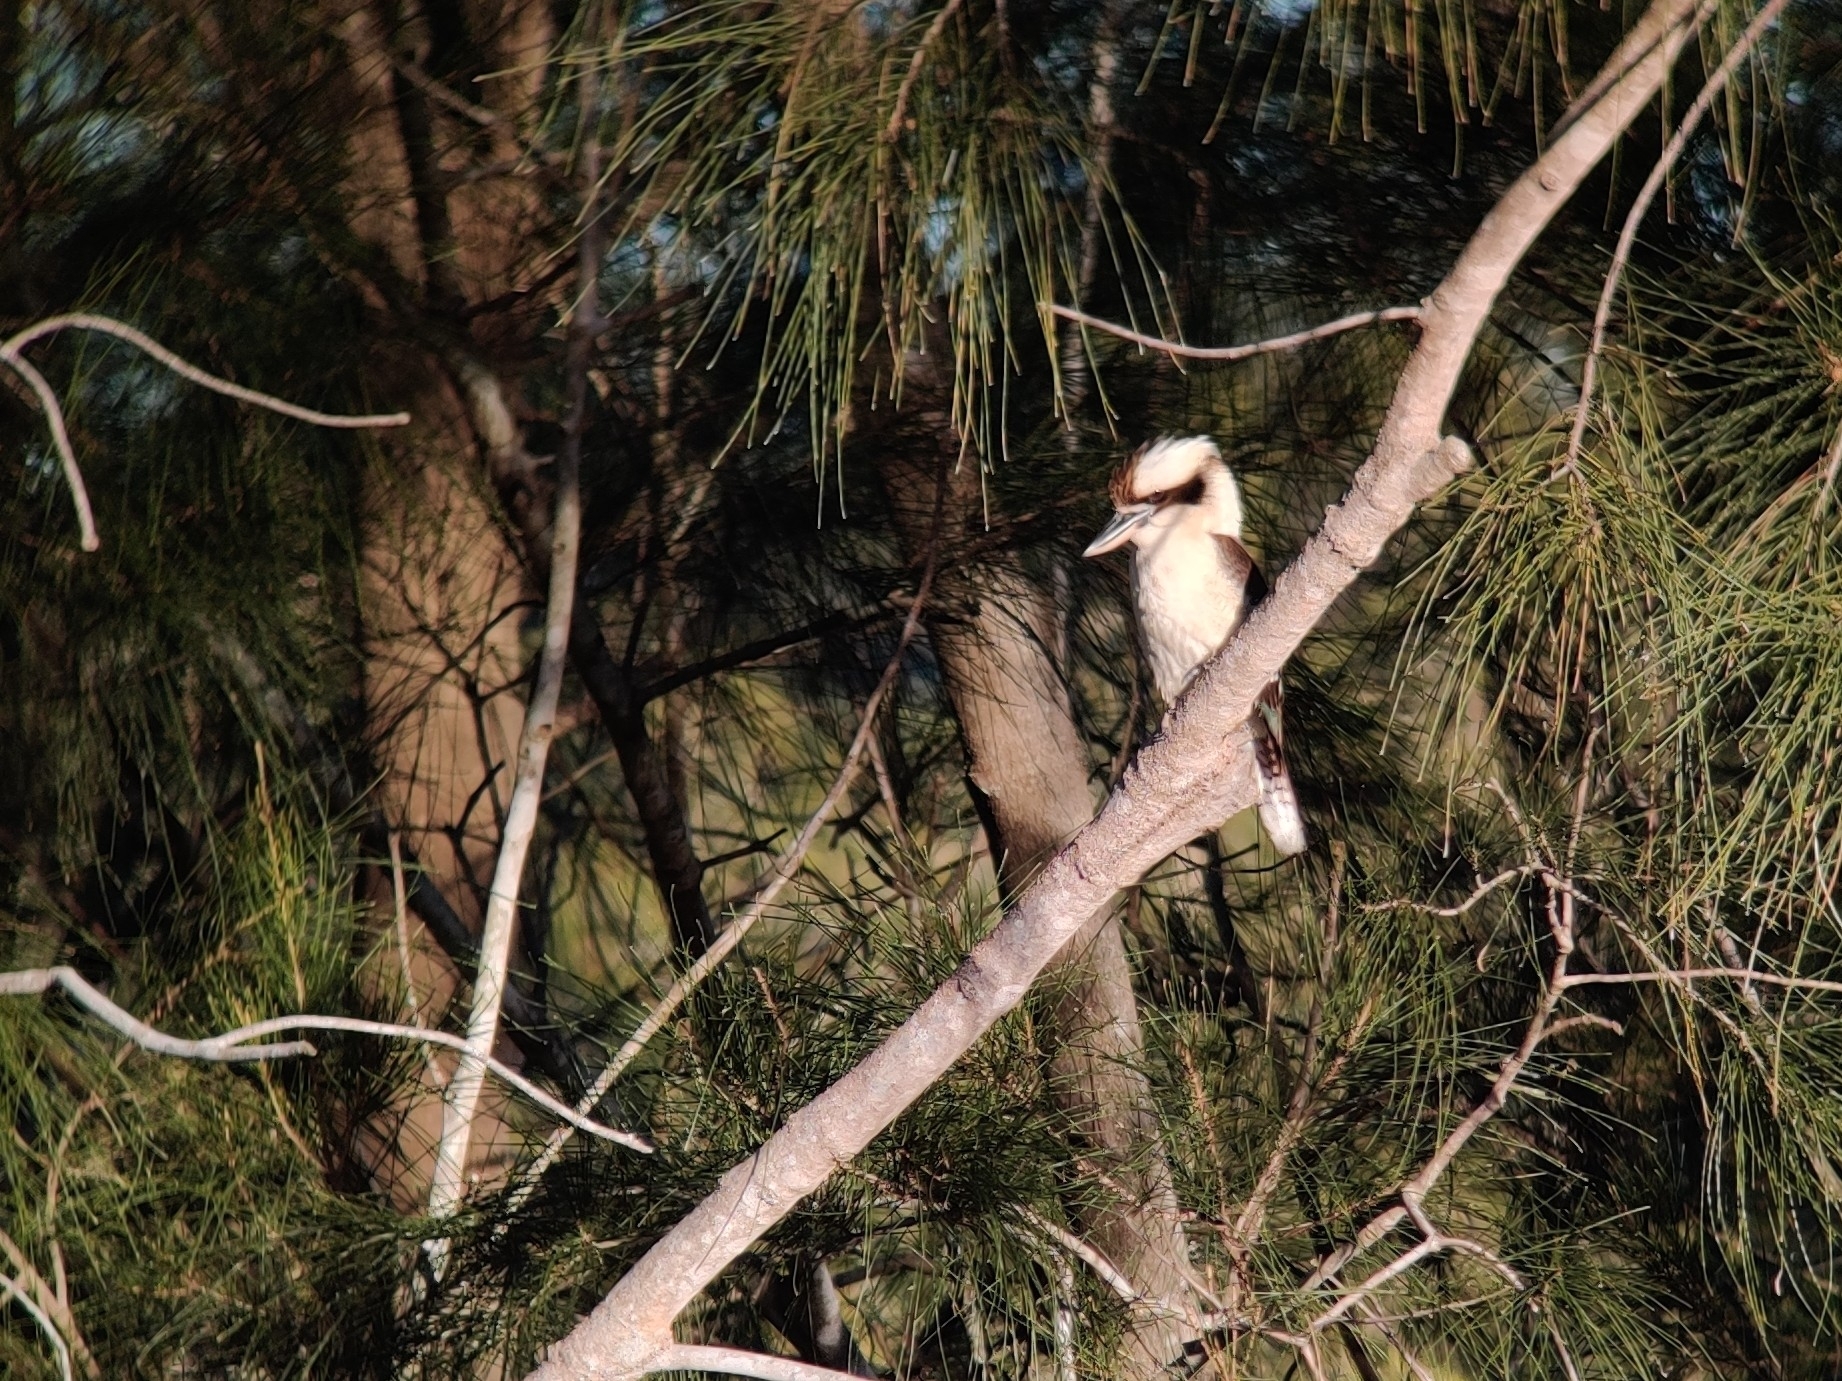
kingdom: Animalia
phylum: Chordata
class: Aves
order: Coraciiformes
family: Alcedinidae
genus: Dacelo
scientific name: Dacelo novaeguineae
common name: Laughing kookaburra
